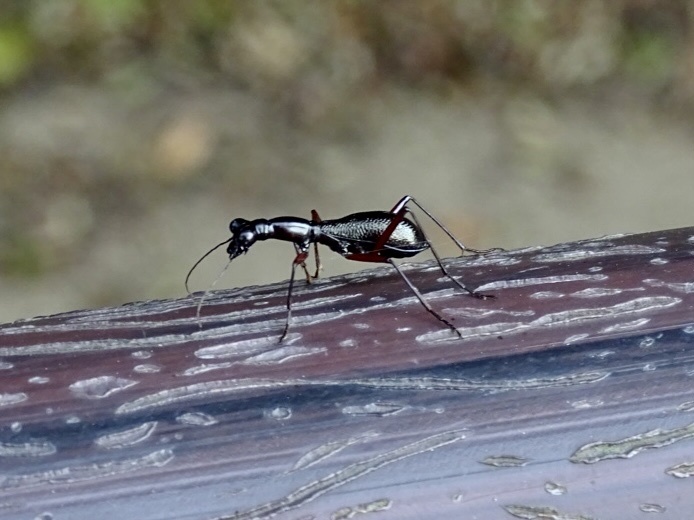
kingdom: Animalia
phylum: Arthropoda
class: Insecta
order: Coleoptera
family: Carabidae
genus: Tricondyla
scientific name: Tricondyla pulchripes
